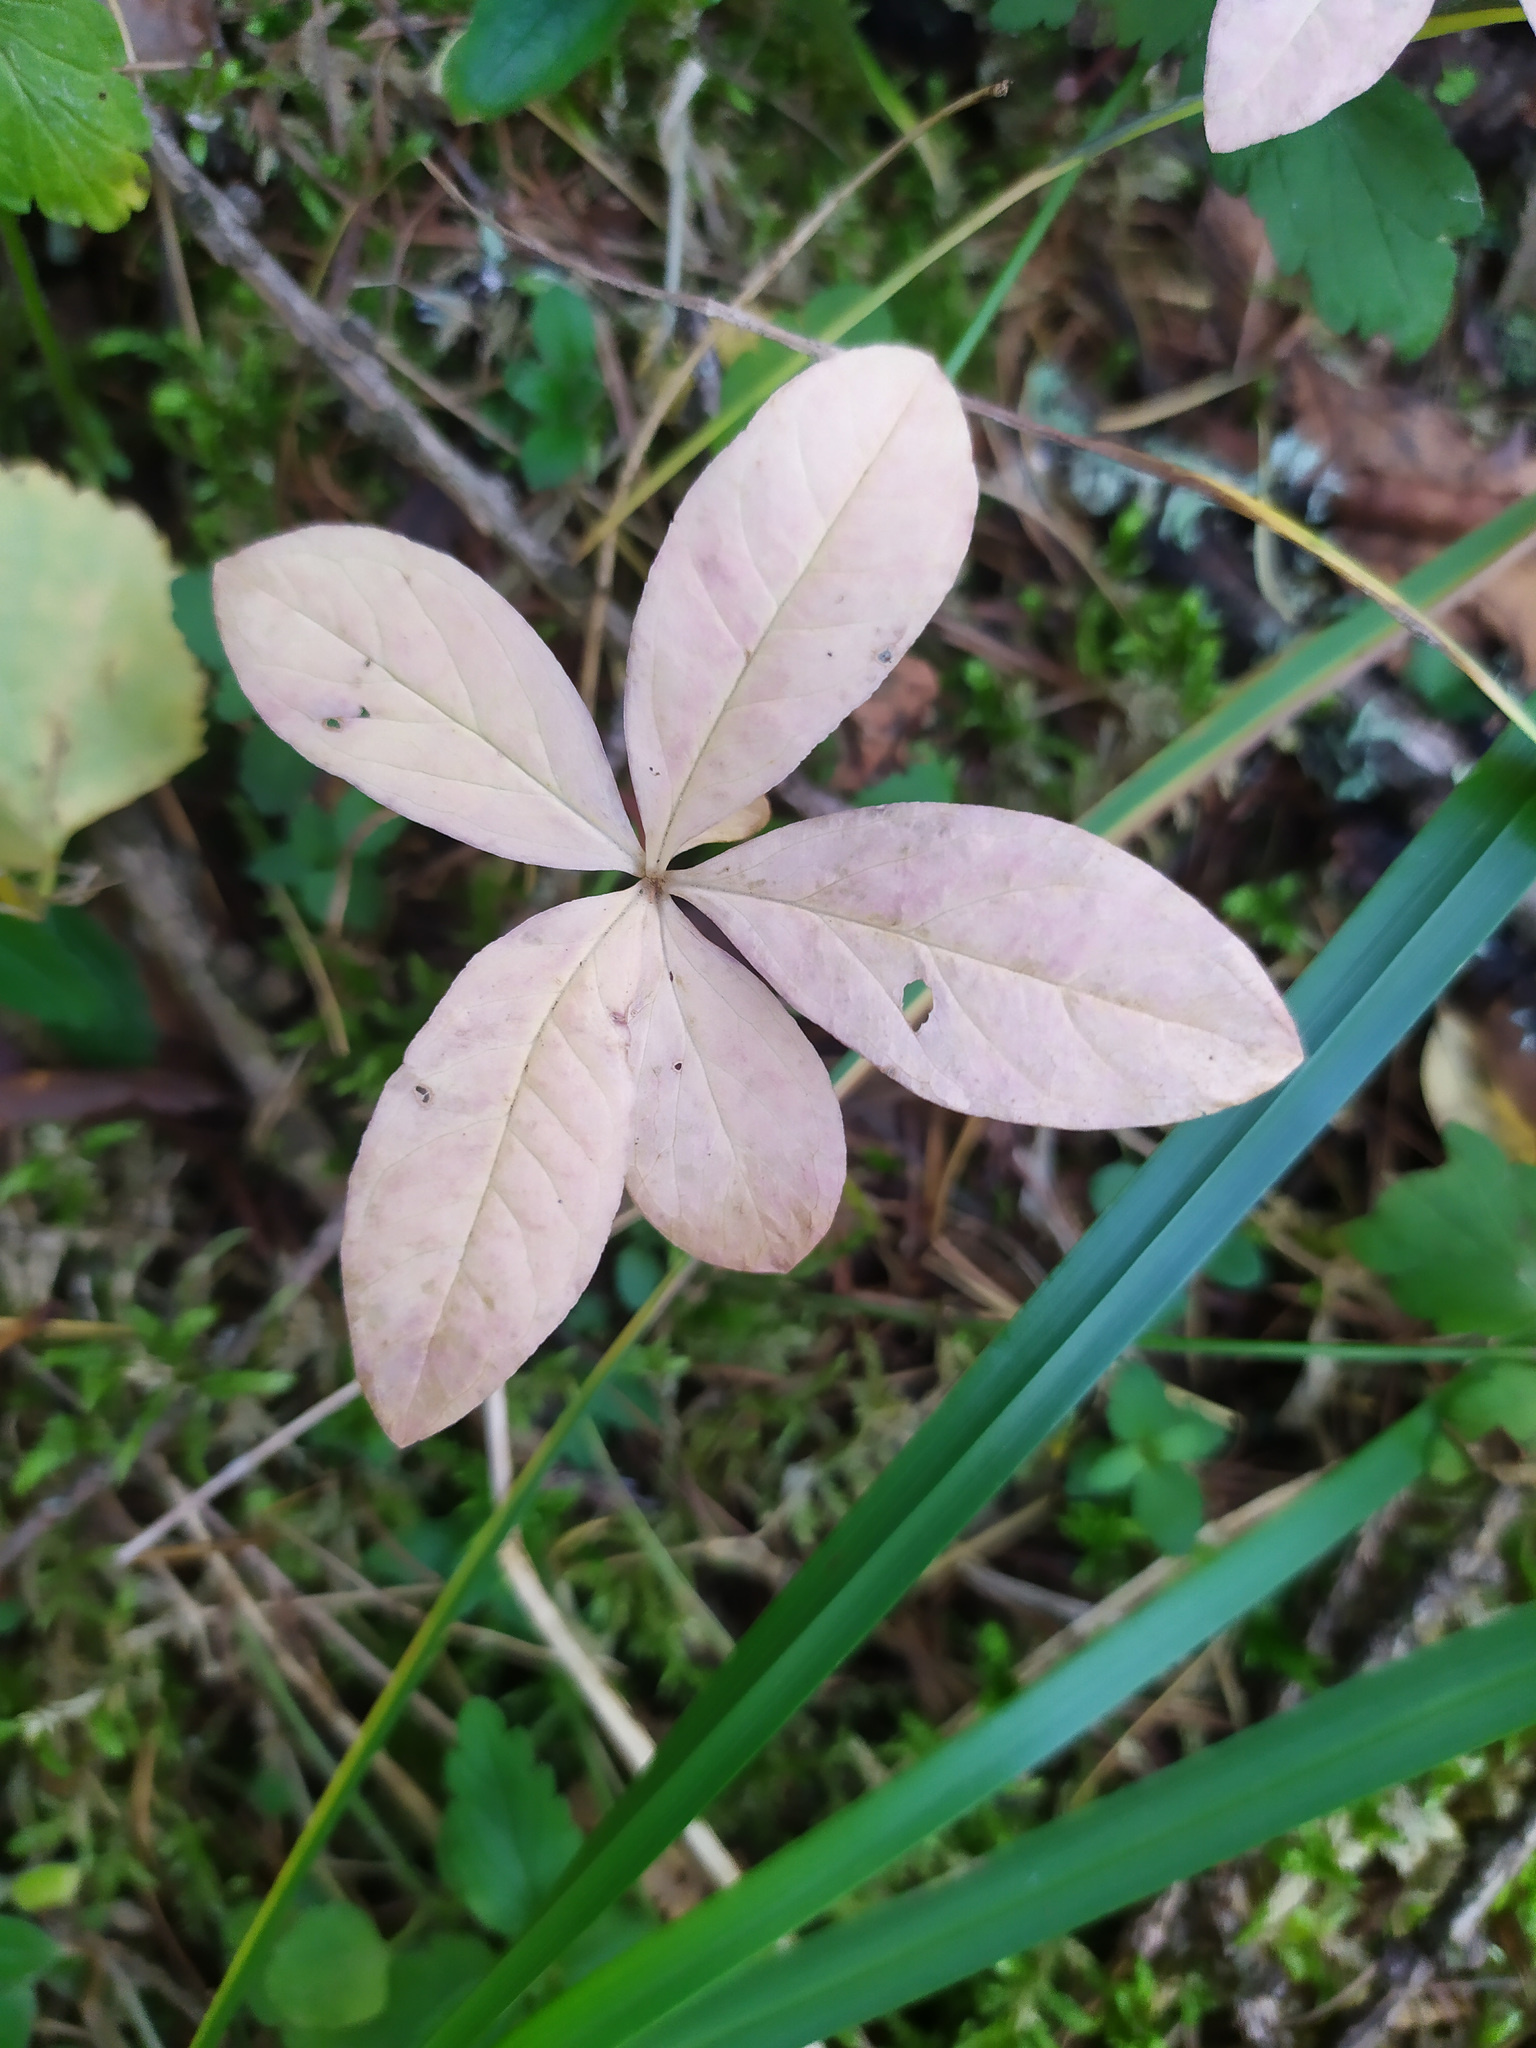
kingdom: Plantae
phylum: Tracheophyta
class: Magnoliopsida
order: Ericales
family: Primulaceae
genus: Lysimachia
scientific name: Lysimachia europaea
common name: Arctic starflower
